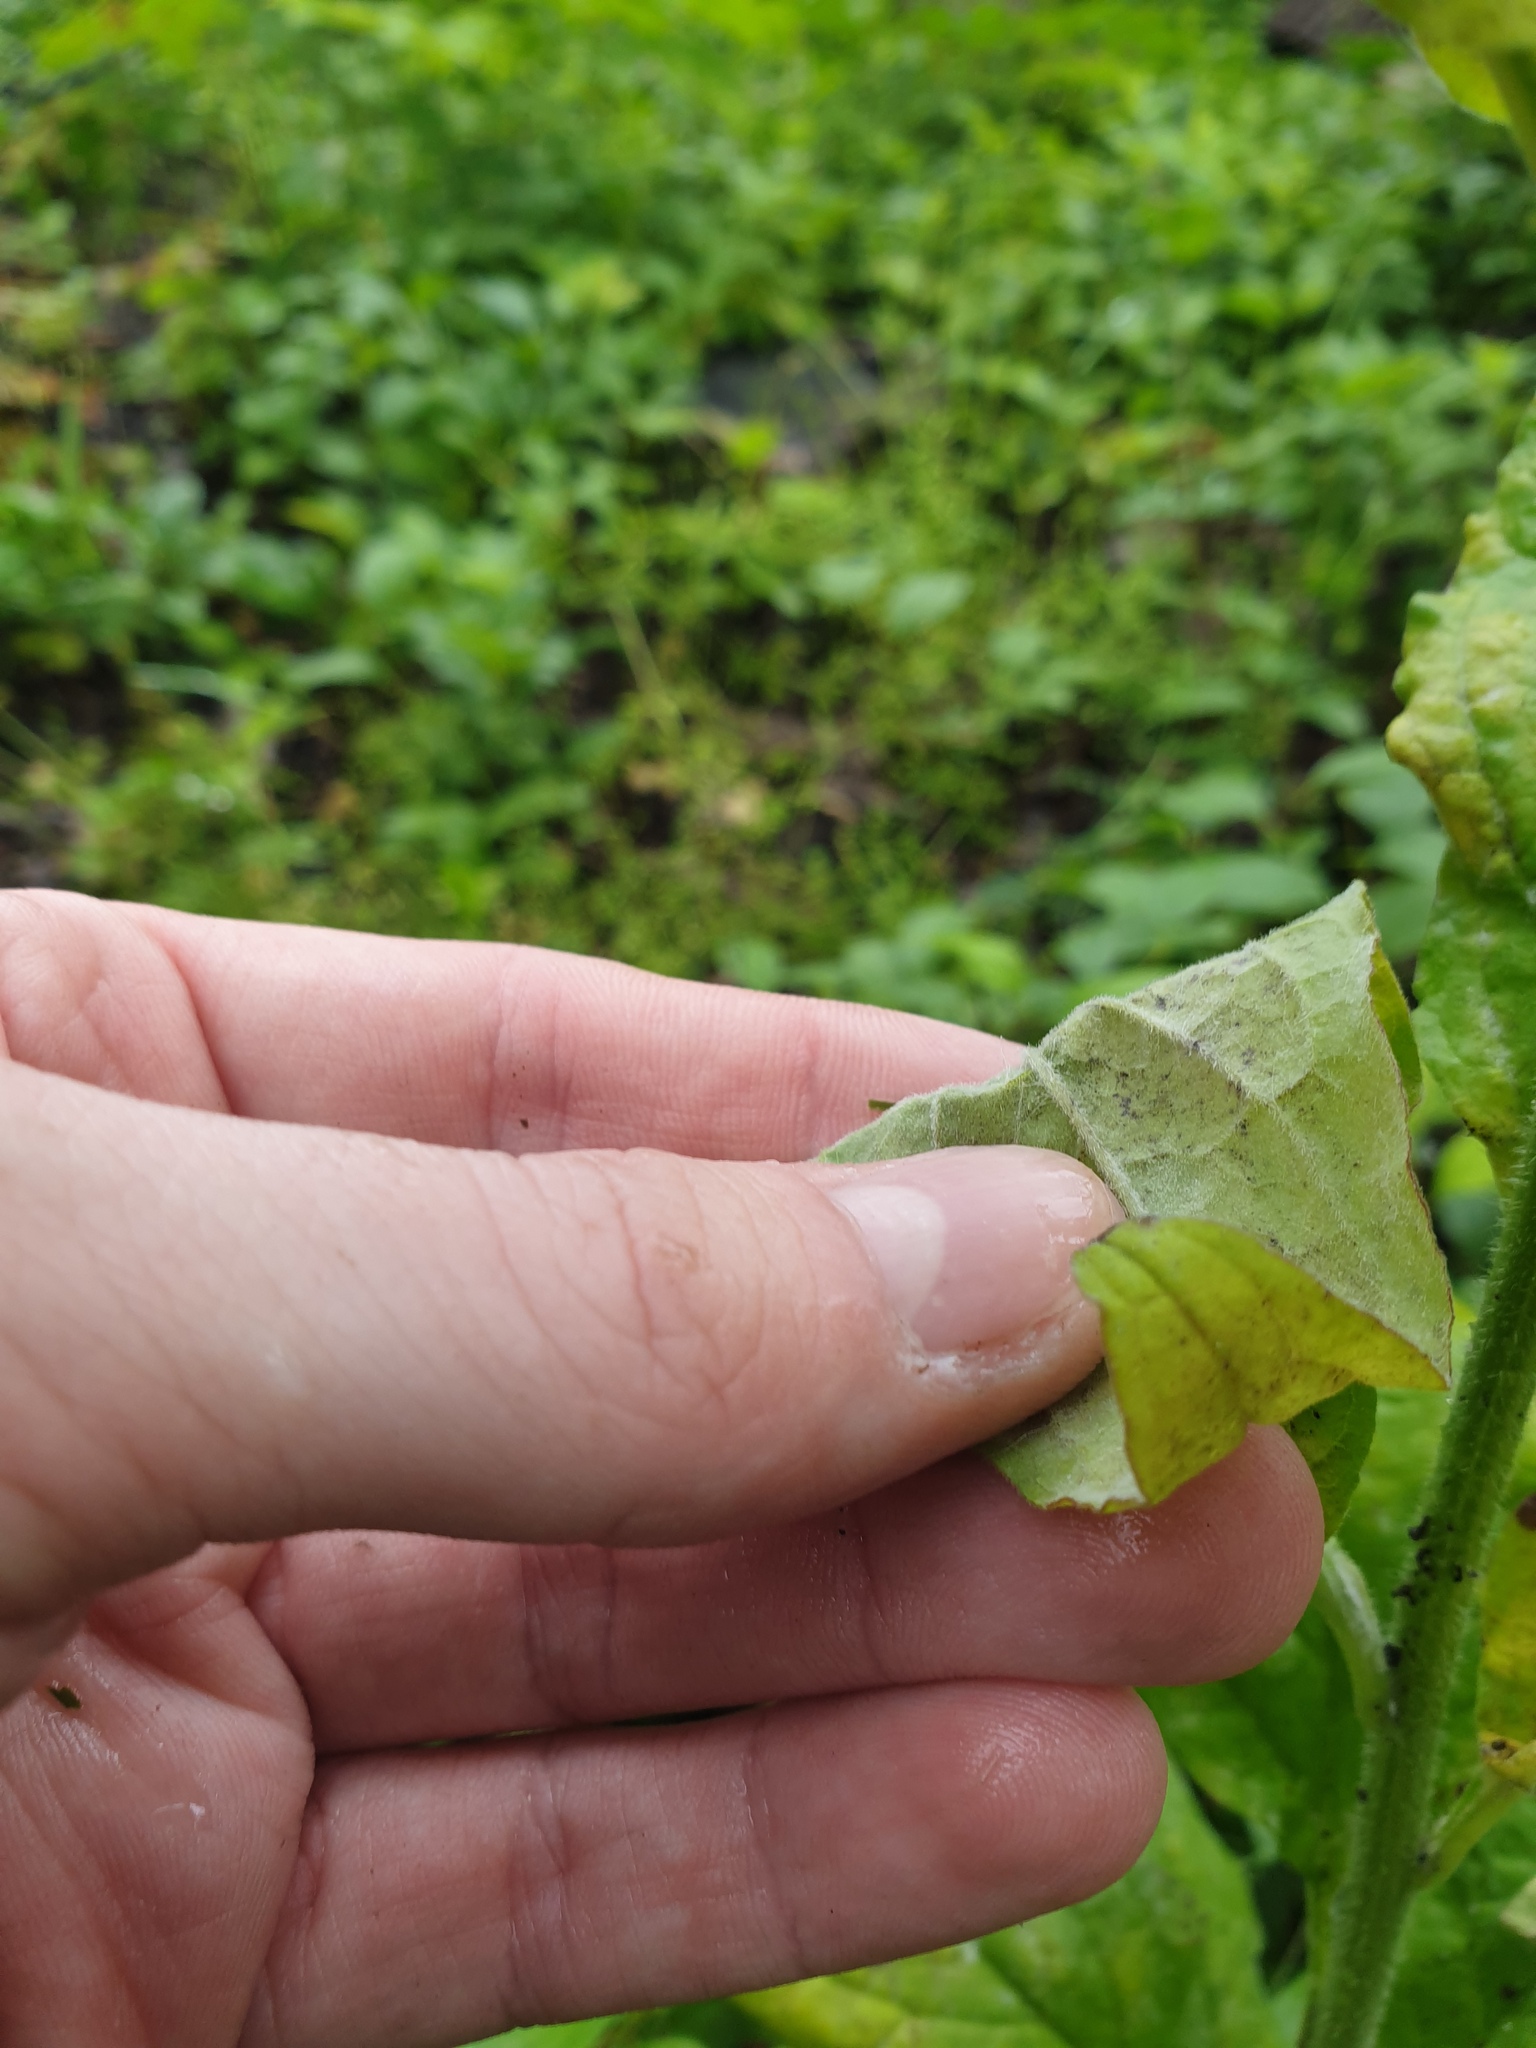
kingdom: Plantae
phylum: Tracheophyta
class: Magnoliopsida
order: Boraginales
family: Boraginaceae
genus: Hackelia
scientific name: Hackelia virginiana
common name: Beggar's-lice
